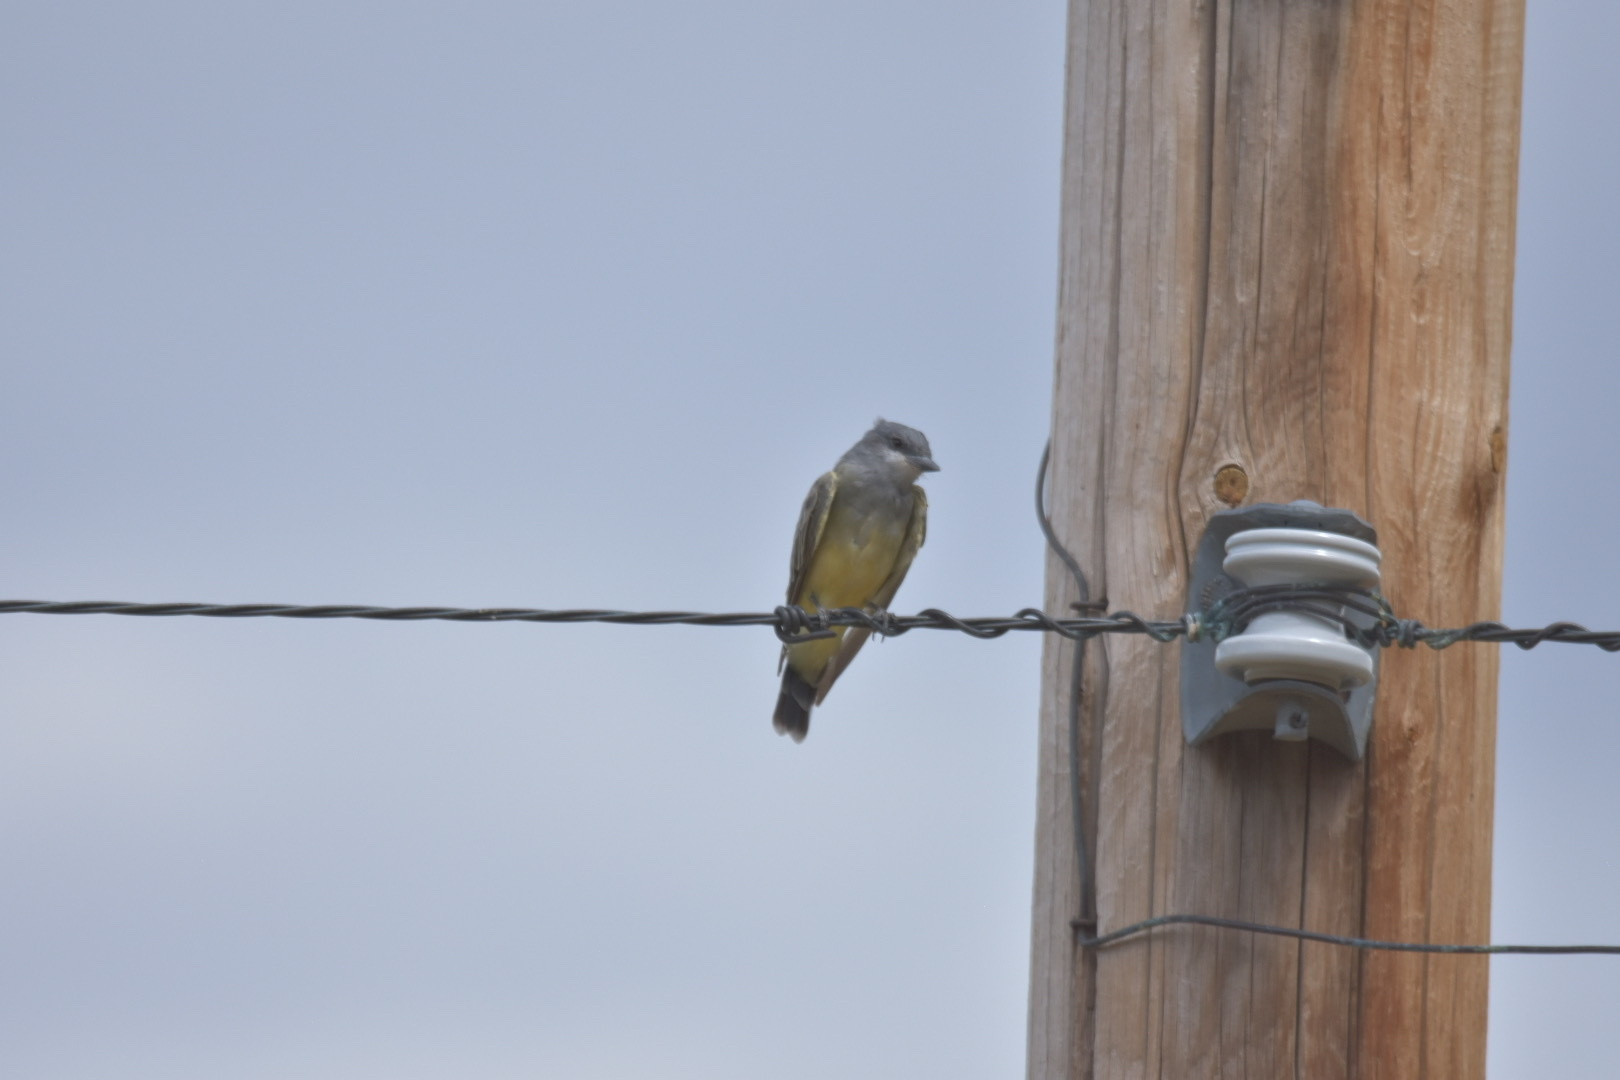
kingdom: Animalia
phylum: Chordata
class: Aves
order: Passeriformes
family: Tyrannidae
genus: Tyrannus
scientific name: Tyrannus verticalis
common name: Western kingbird
